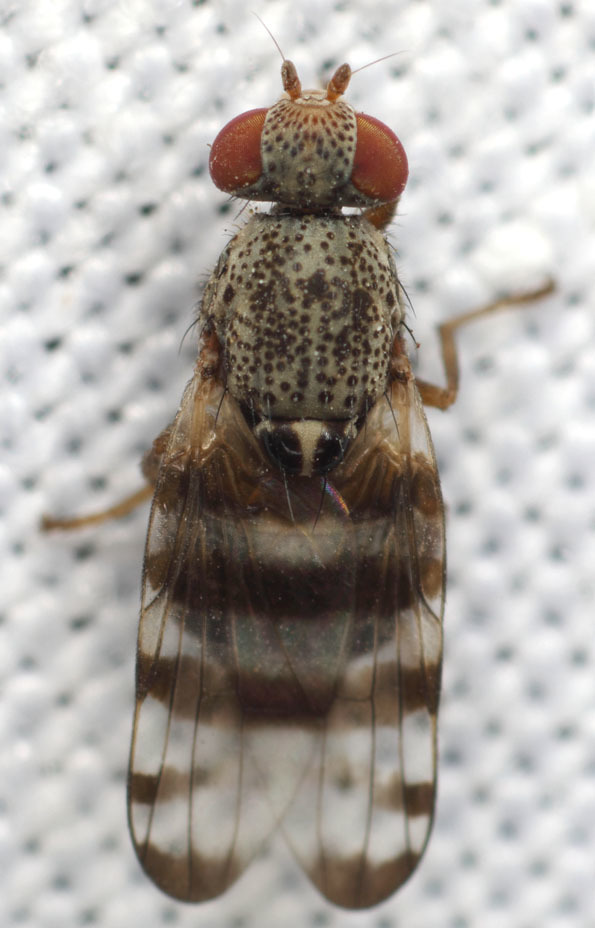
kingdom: Animalia
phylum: Arthropoda
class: Insecta
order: Diptera
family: Ulidiidae
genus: Pseudotephritina
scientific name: Pseudotephritina inaequalis
